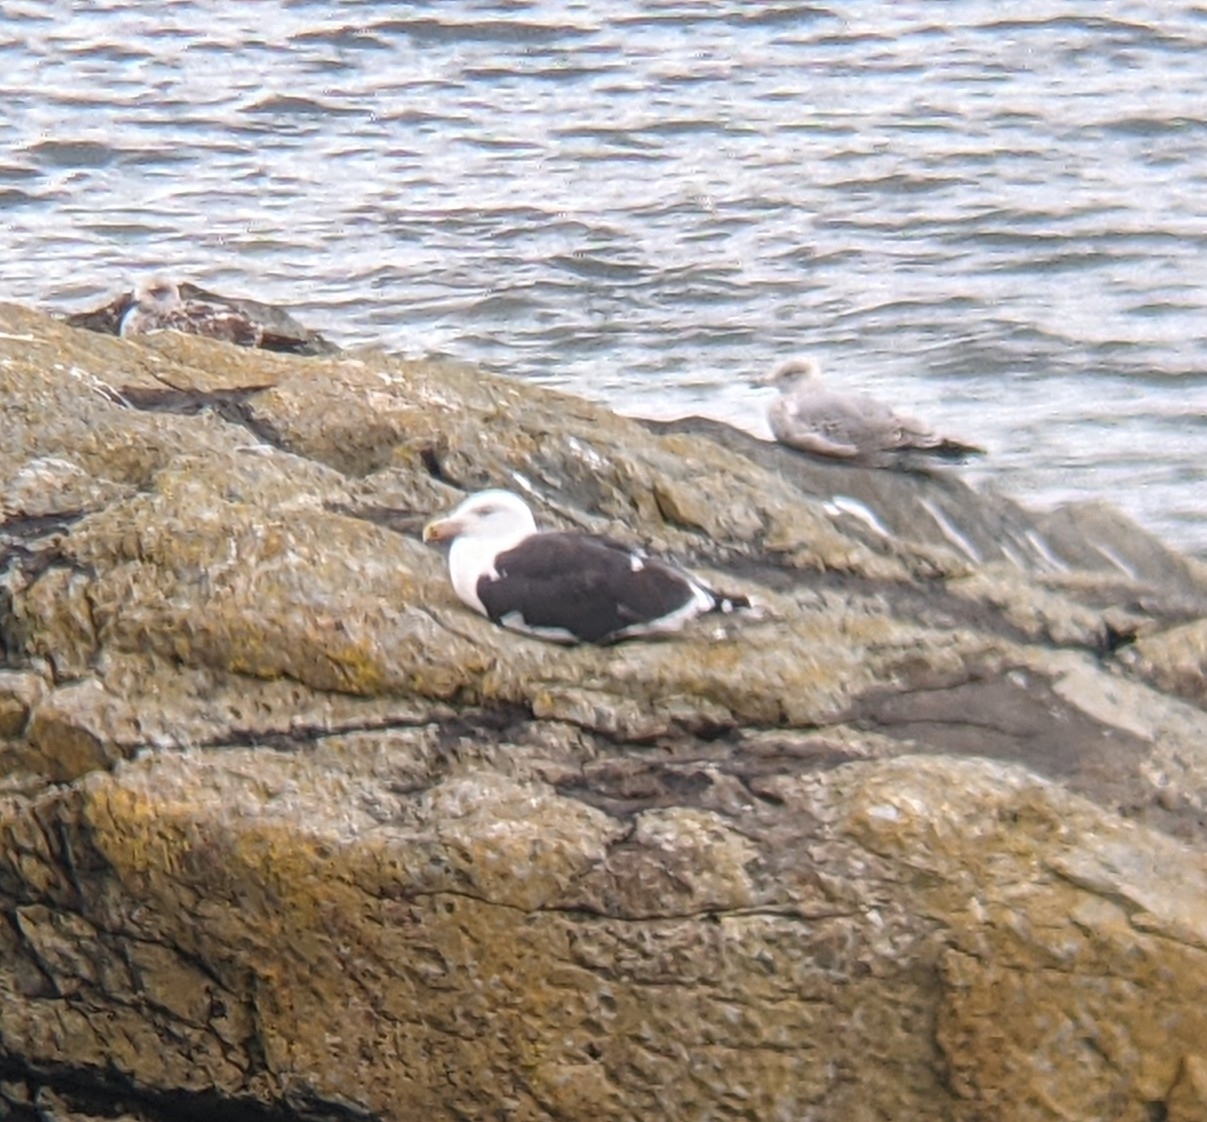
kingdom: Animalia
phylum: Chordata
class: Aves
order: Charadriiformes
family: Laridae
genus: Larus
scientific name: Larus marinus
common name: Great black-backed gull
